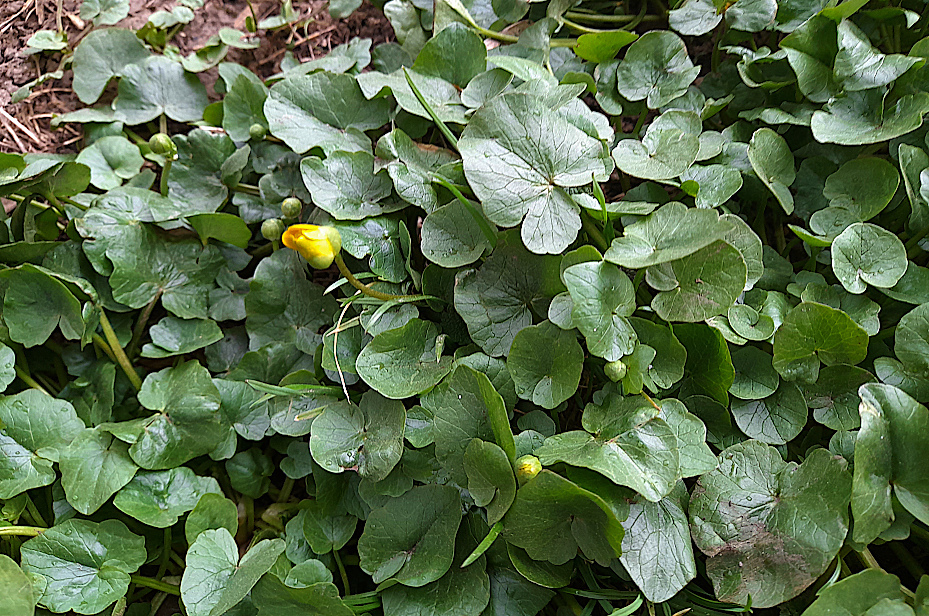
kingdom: Plantae
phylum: Tracheophyta
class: Magnoliopsida
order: Ranunculales
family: Ranunculaceae
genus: Ficaria
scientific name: Ficaria verna
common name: Lesser celandine
